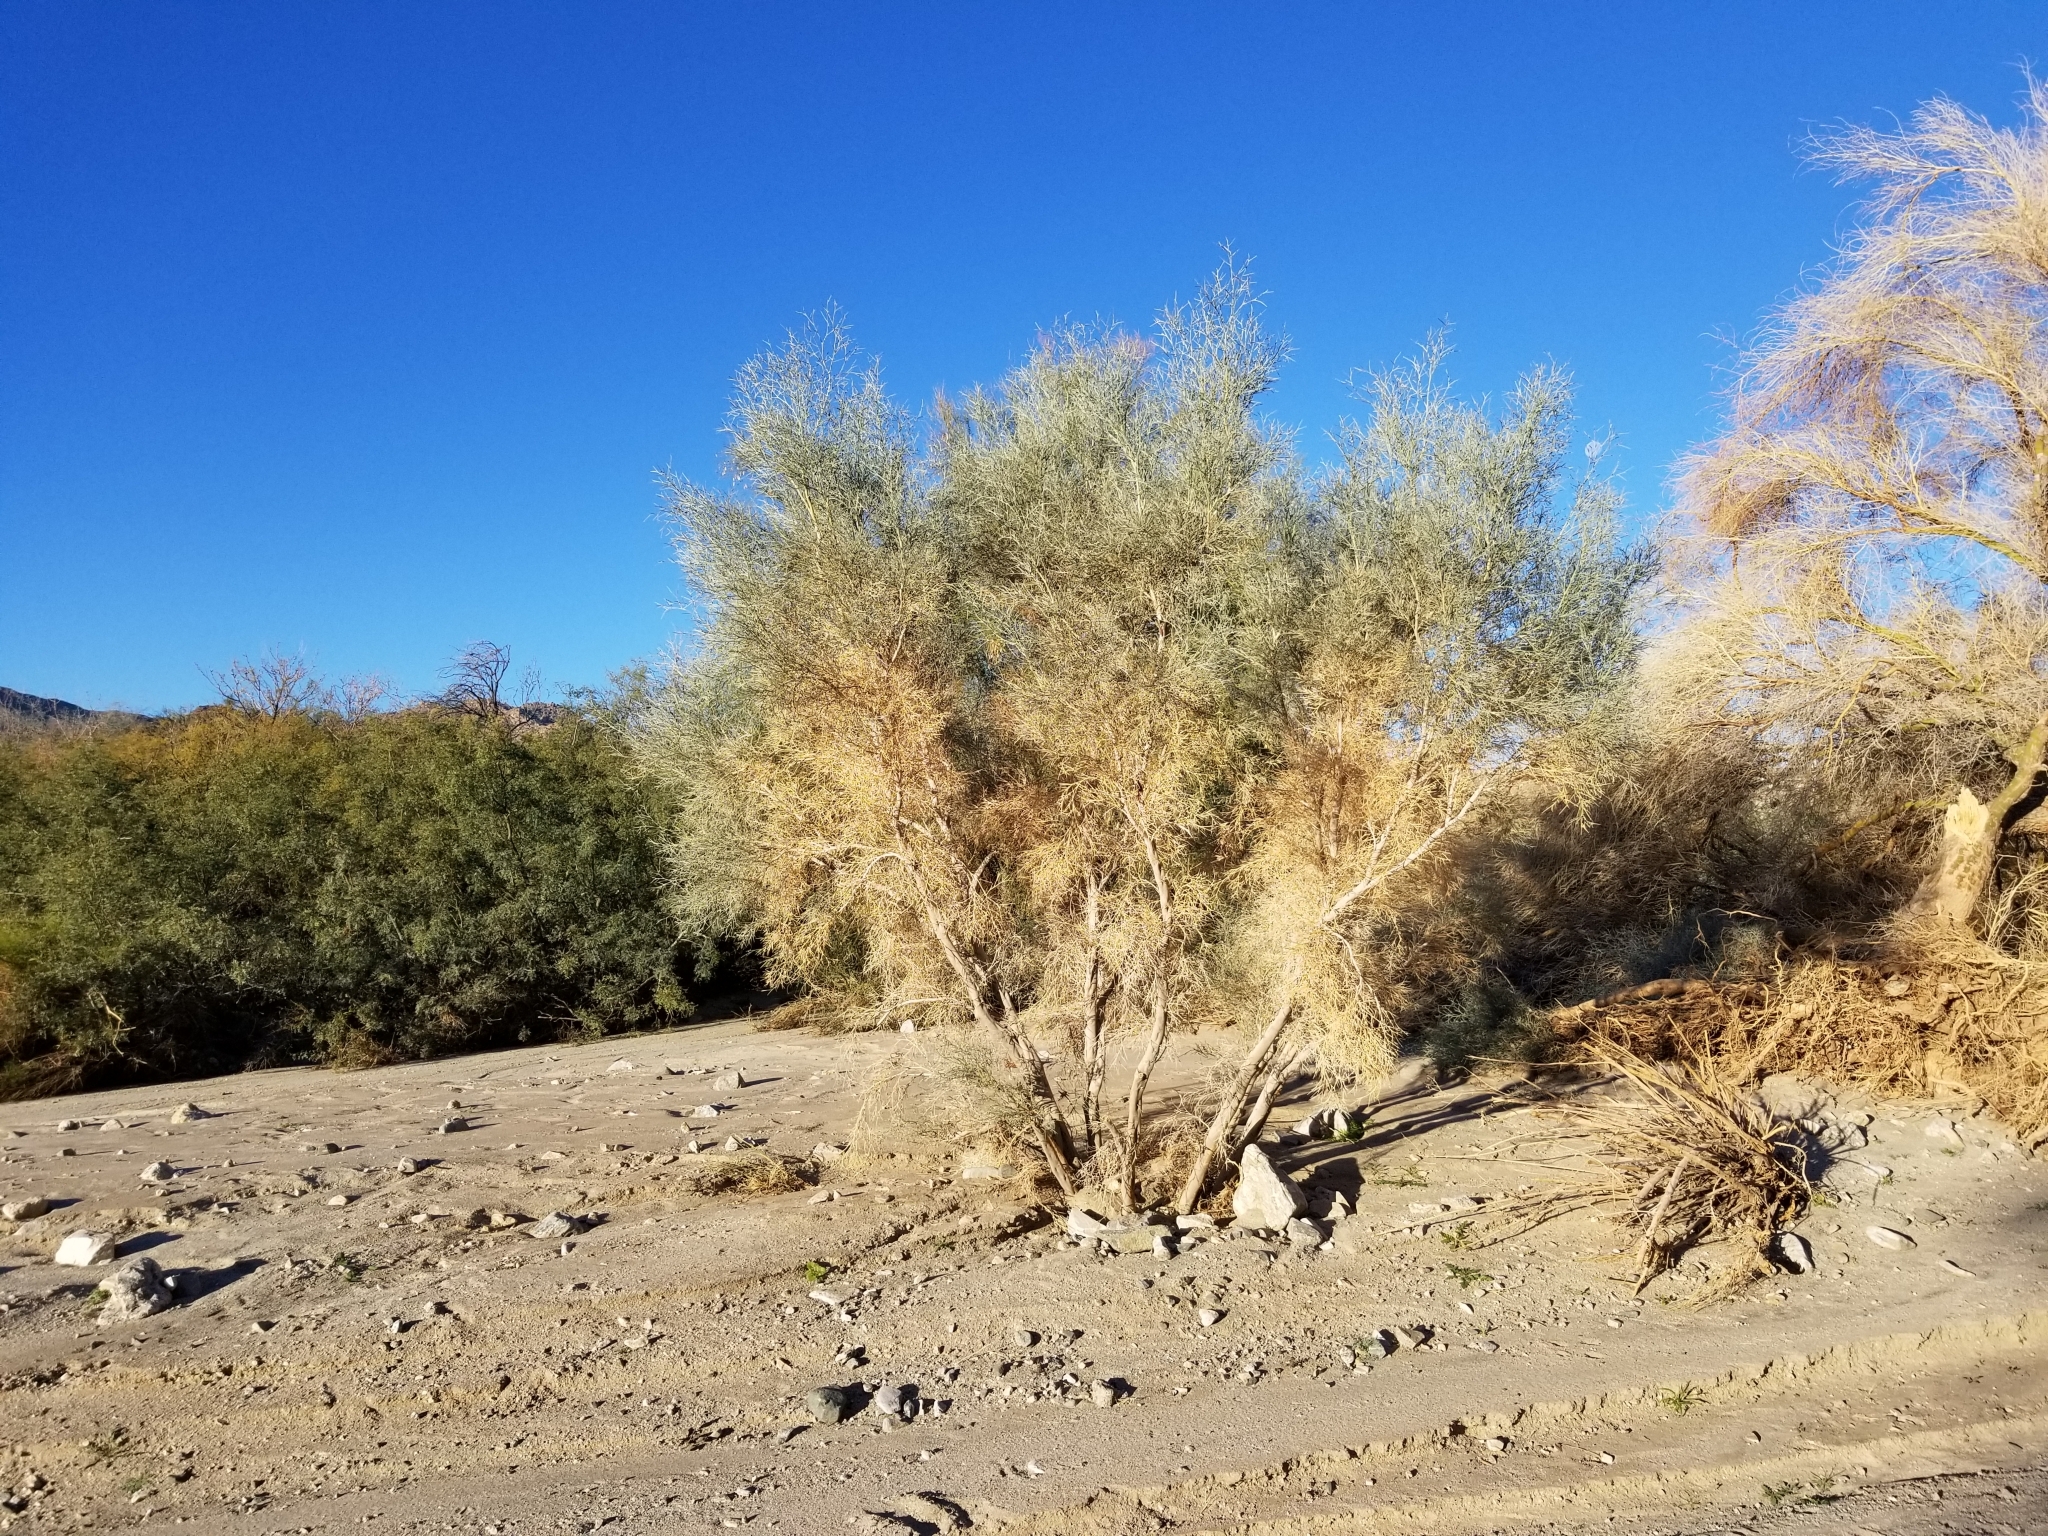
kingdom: Plantae
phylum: Tracheophyta
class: Magnoliopsida
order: Fabales
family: Fabaceae
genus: Psorothamnus
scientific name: Psorothamnus spinosus
